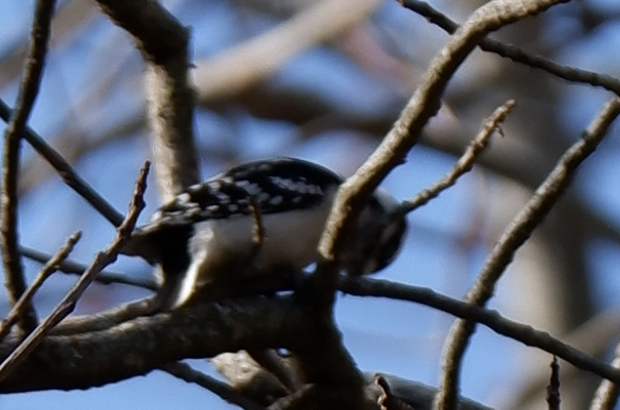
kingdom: Animalia
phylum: Chordata
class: Aves
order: Piciformes
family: Picidae
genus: Dryobates
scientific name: Dryobates pubescens
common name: Downy woodpecker
